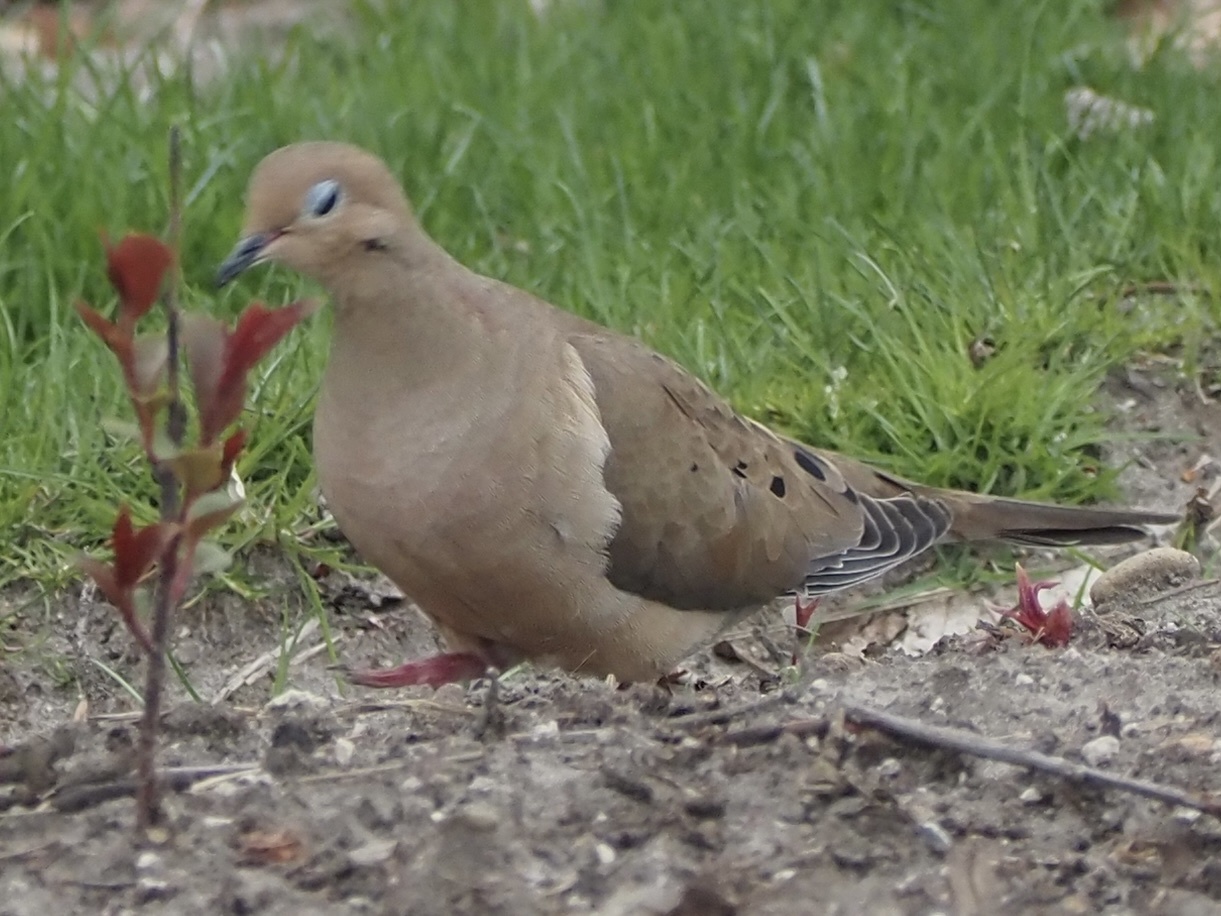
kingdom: Animalia
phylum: Chordata
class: Aves
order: Columbiformes
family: Columbidae
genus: Zenaida
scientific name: Zenaida macroura
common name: Mourning dove
